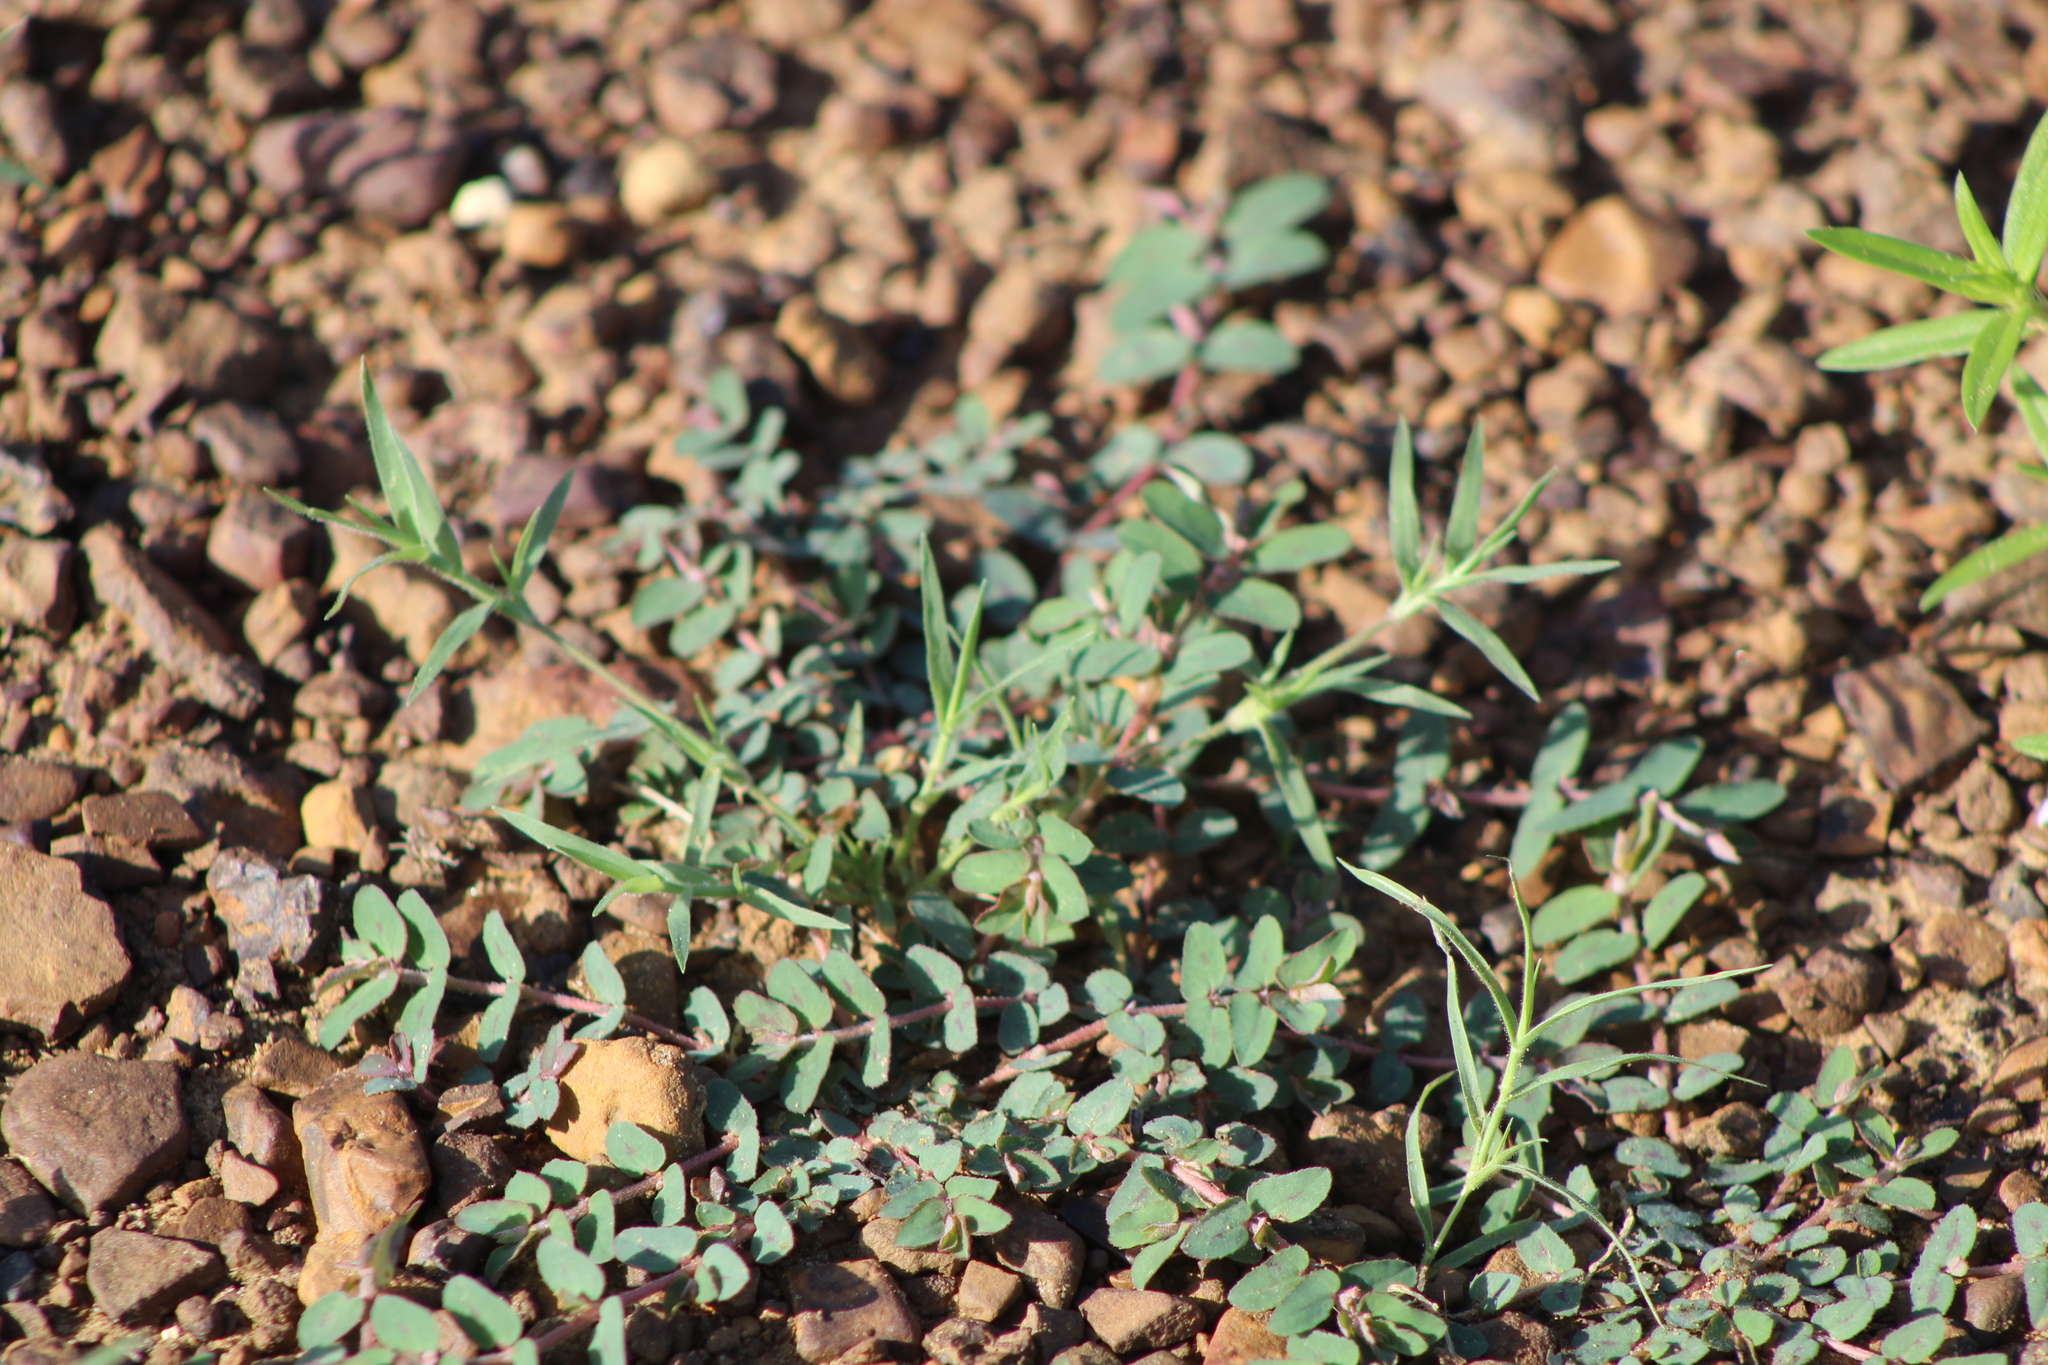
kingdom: Plantae
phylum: Tracheophyta
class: Magnoliopsida
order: Malpighiales
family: Euphorbiaceae
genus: Euphorbia
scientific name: Euphorbia maculata
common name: Spotted spurge
